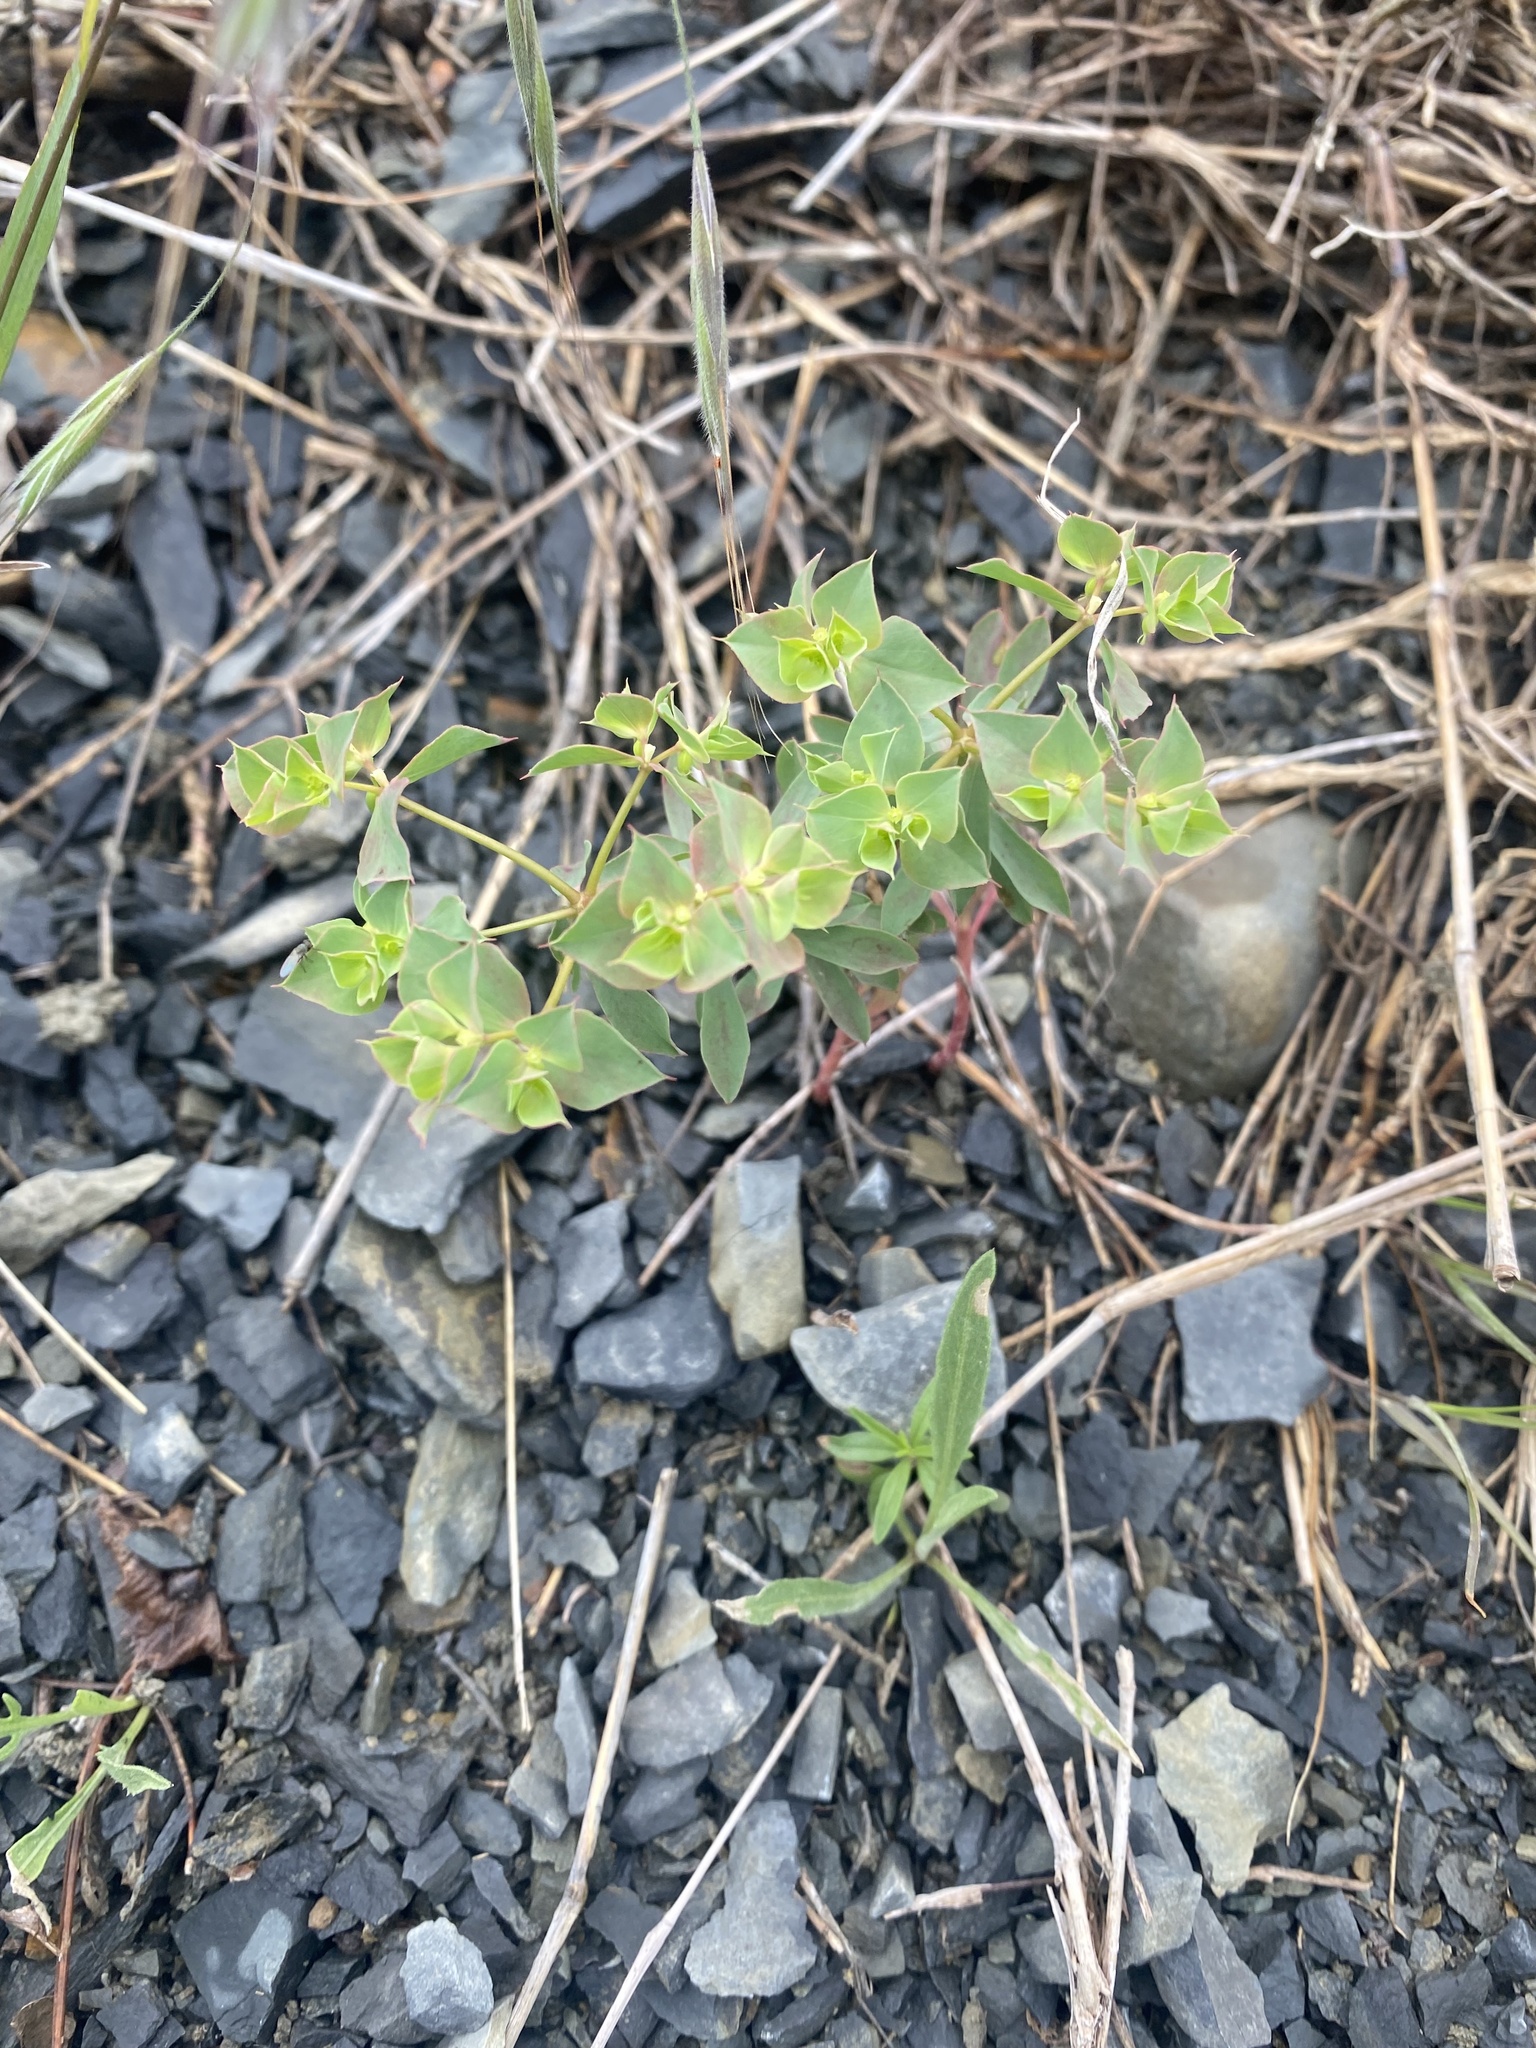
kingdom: Plantae
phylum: Tracheophyta
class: Magnoliopsida
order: Malpighiales
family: Euphorbiaceae
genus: Euphorbia
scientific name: Euphorbia falcata
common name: Sickle spurge
